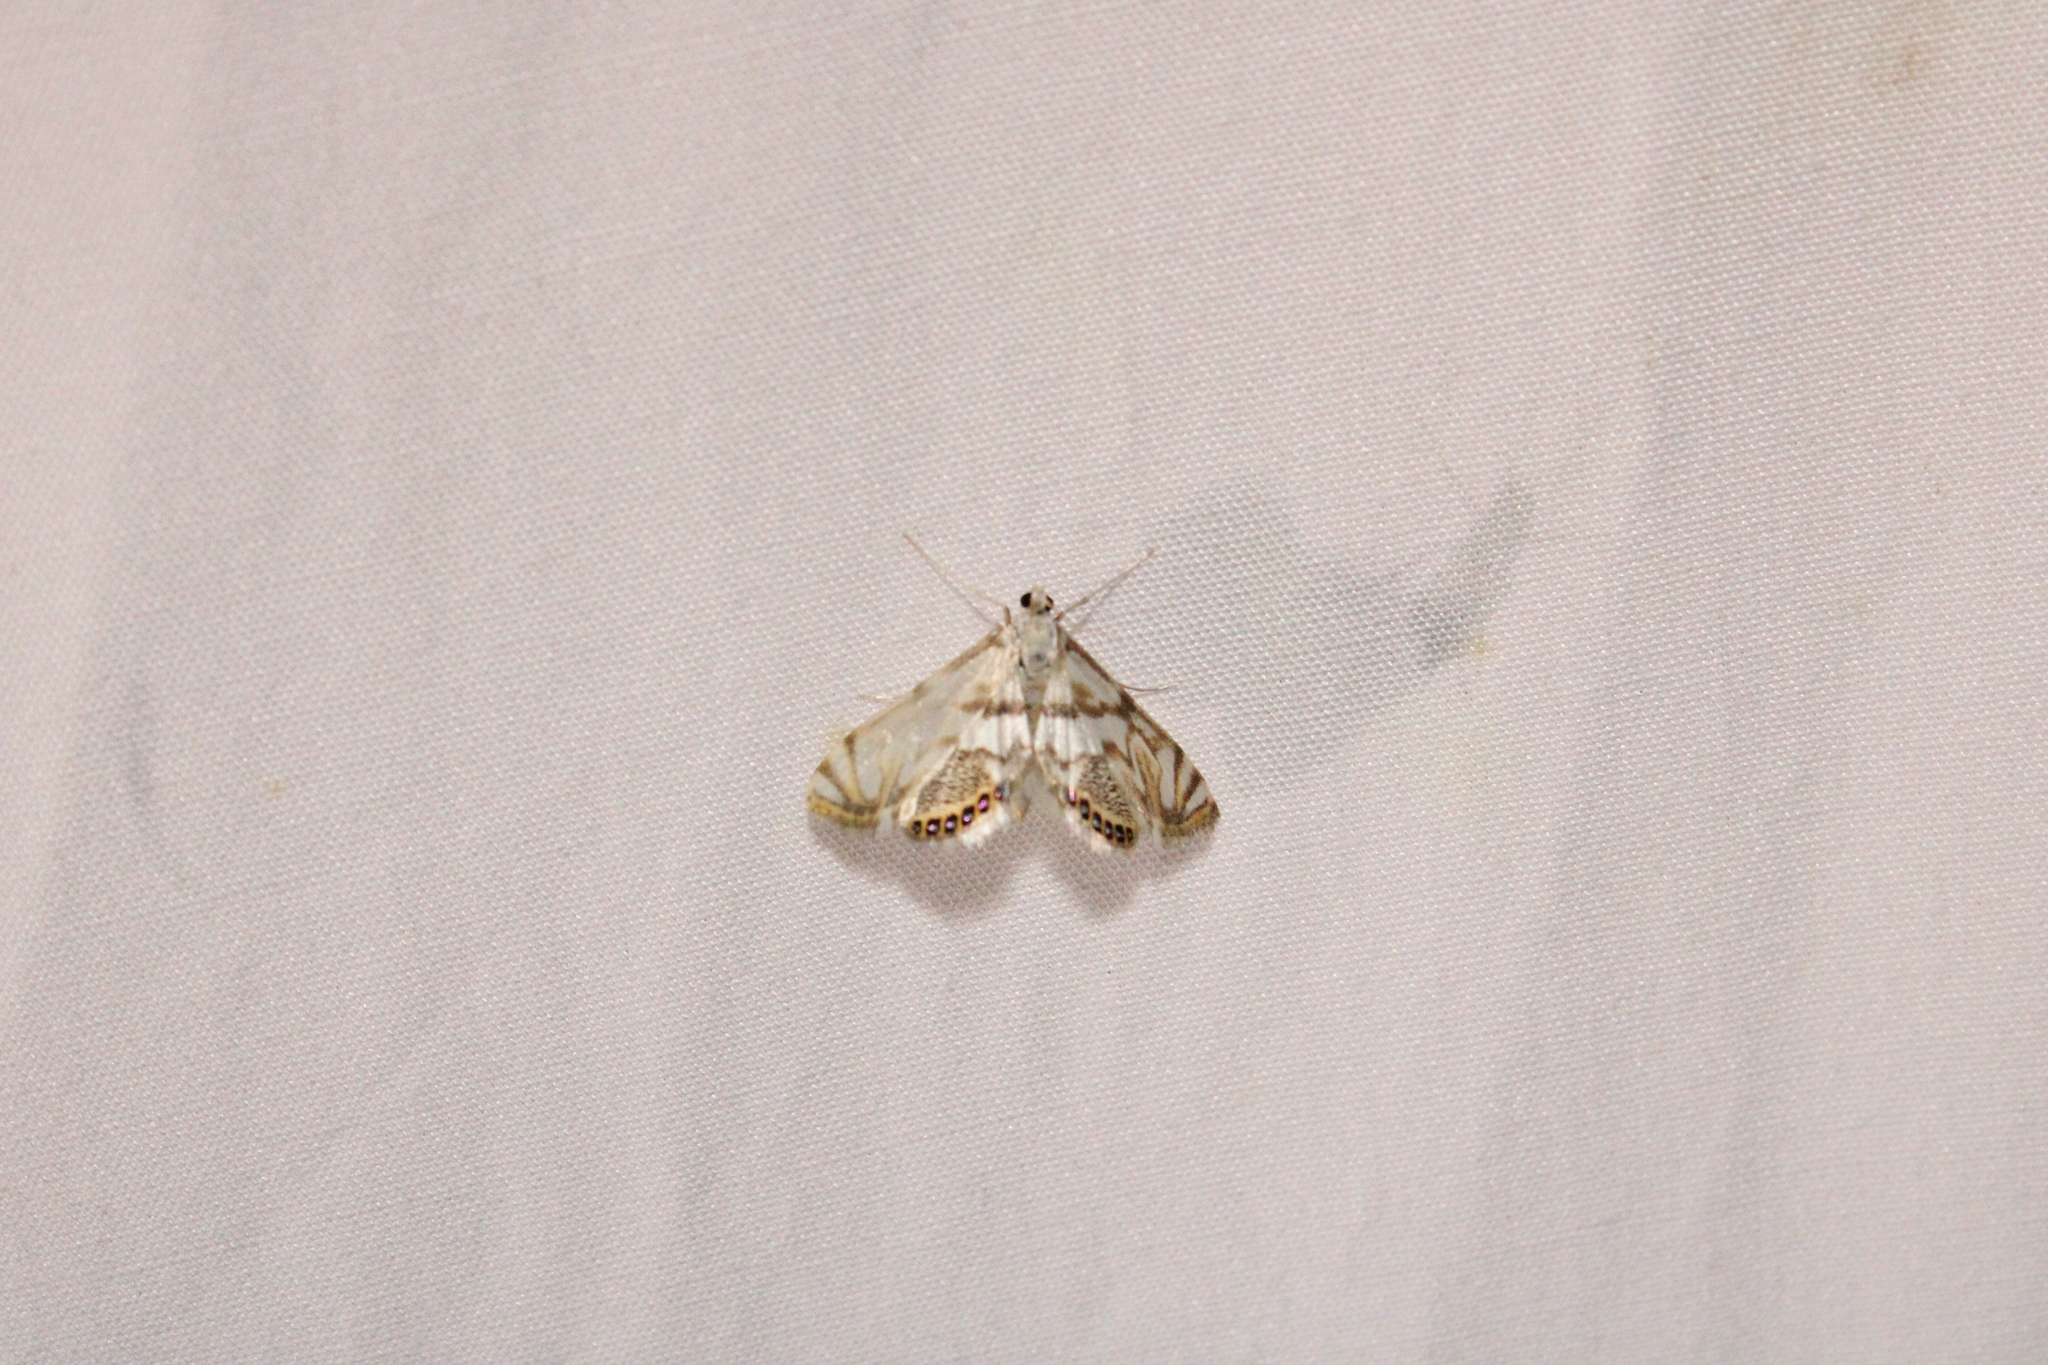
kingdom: Animalia
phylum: Arthropoda
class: Insecta
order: Lepidoptera
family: Crambidae
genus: Neocataclysta
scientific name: Neocataclysta magnificalis
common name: Scrollwork pyralid moth
